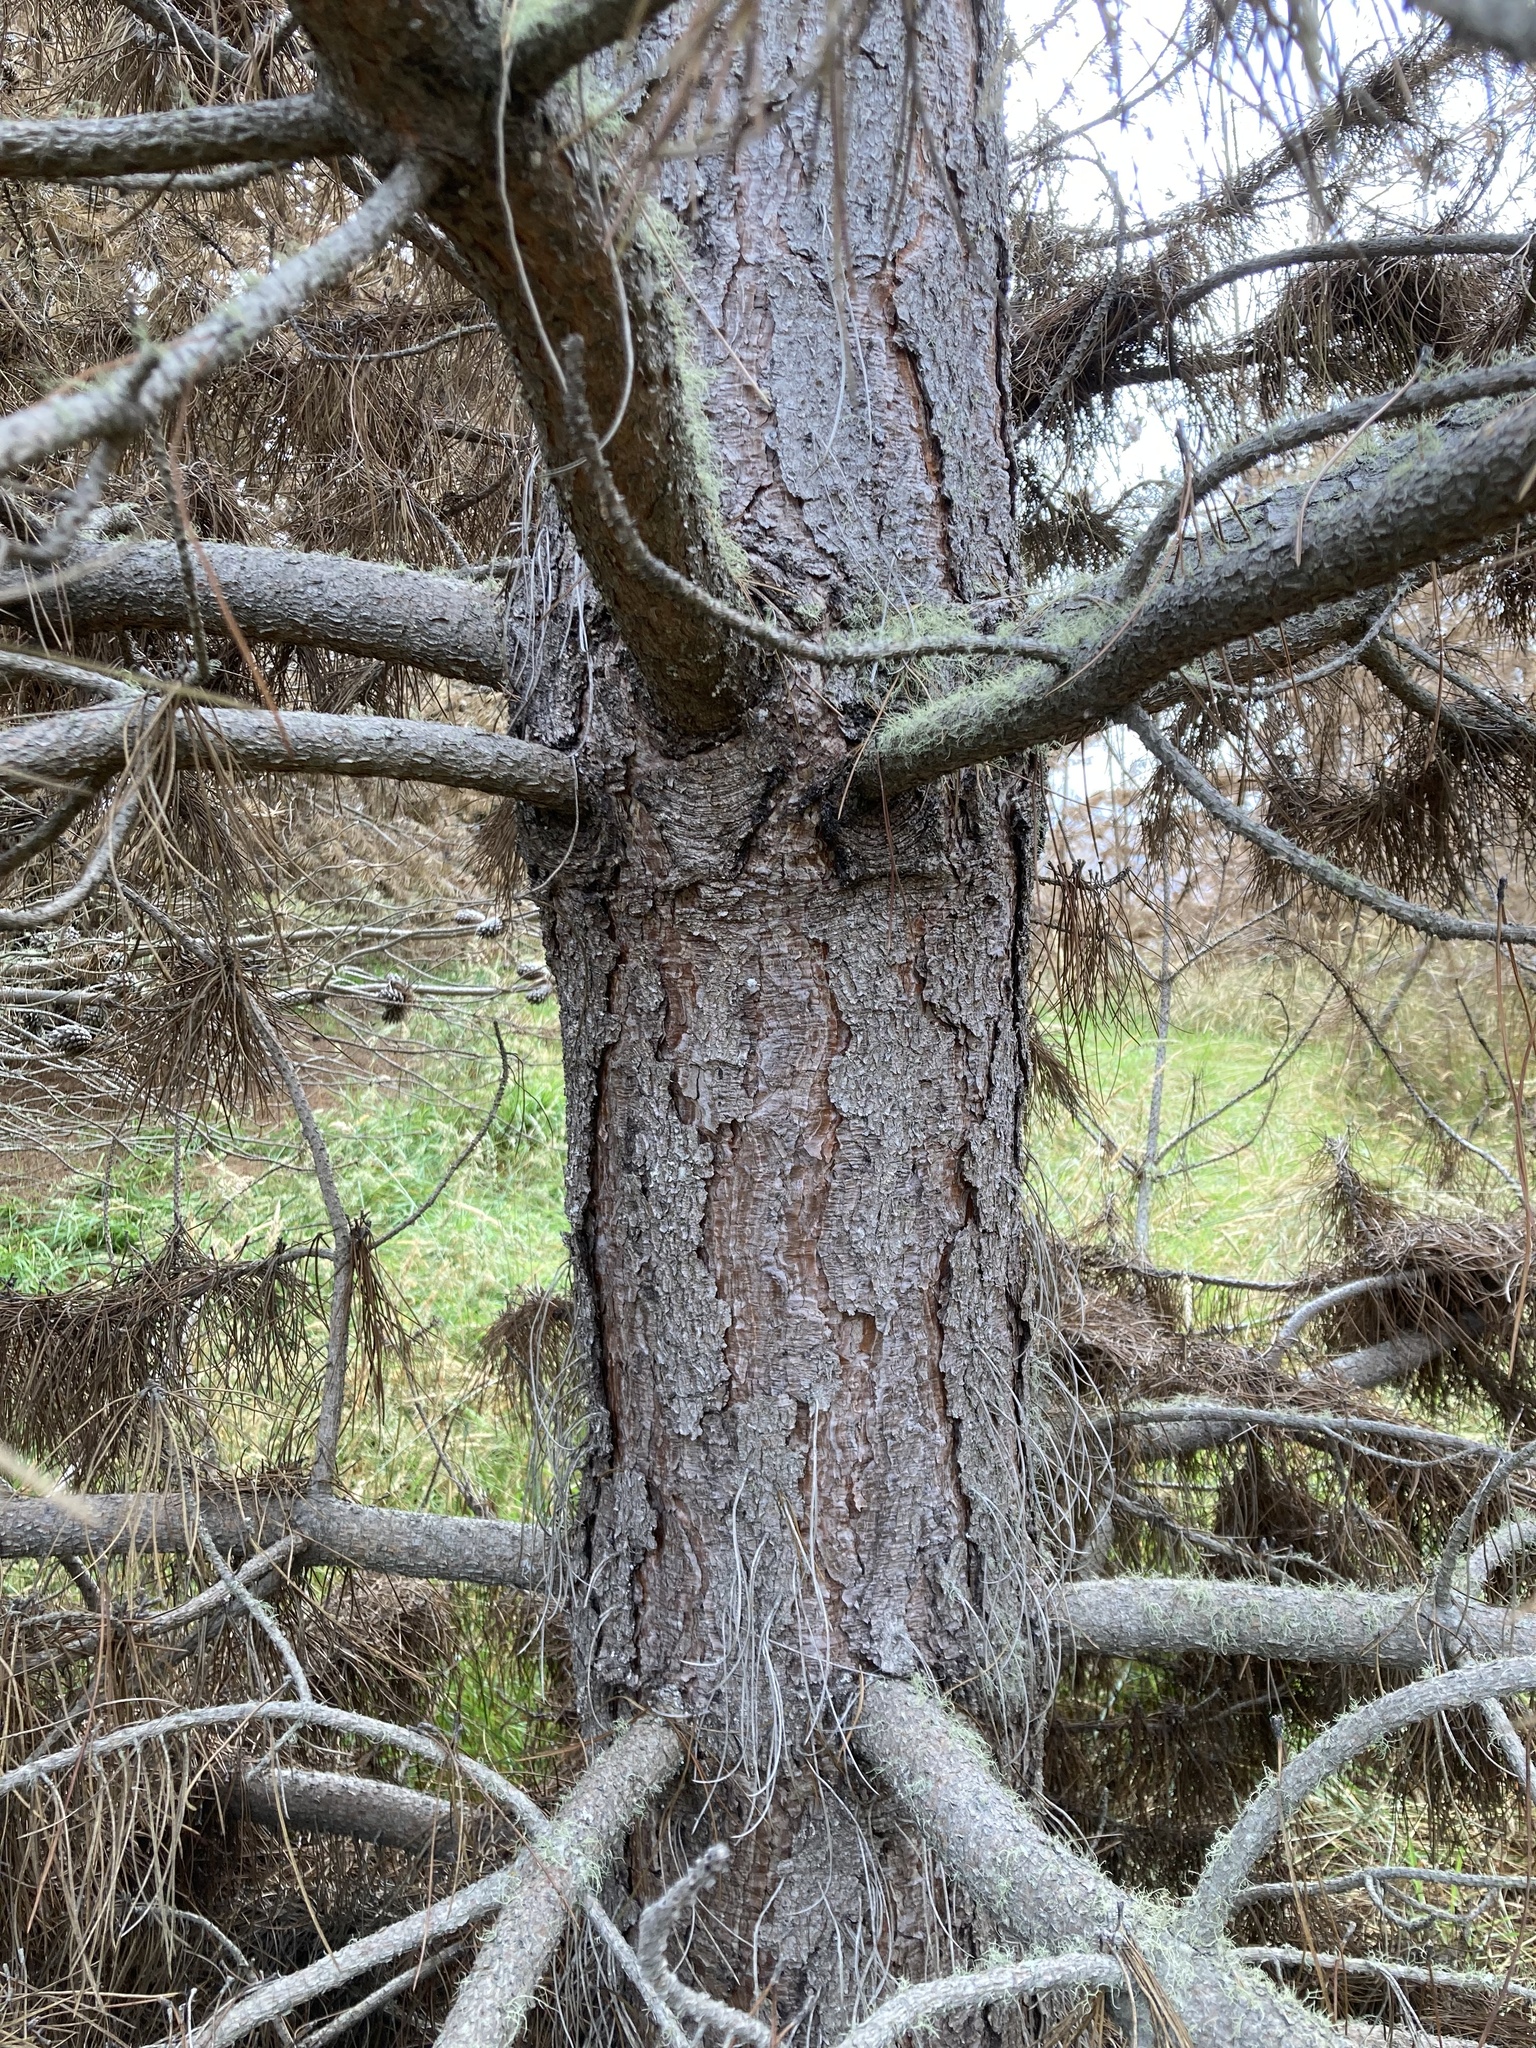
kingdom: Plantae
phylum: Tracheophyta
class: Pinopsida
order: Pinales
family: Pinaceae
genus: Pinus
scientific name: Pinus nigra
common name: Austrian pine
